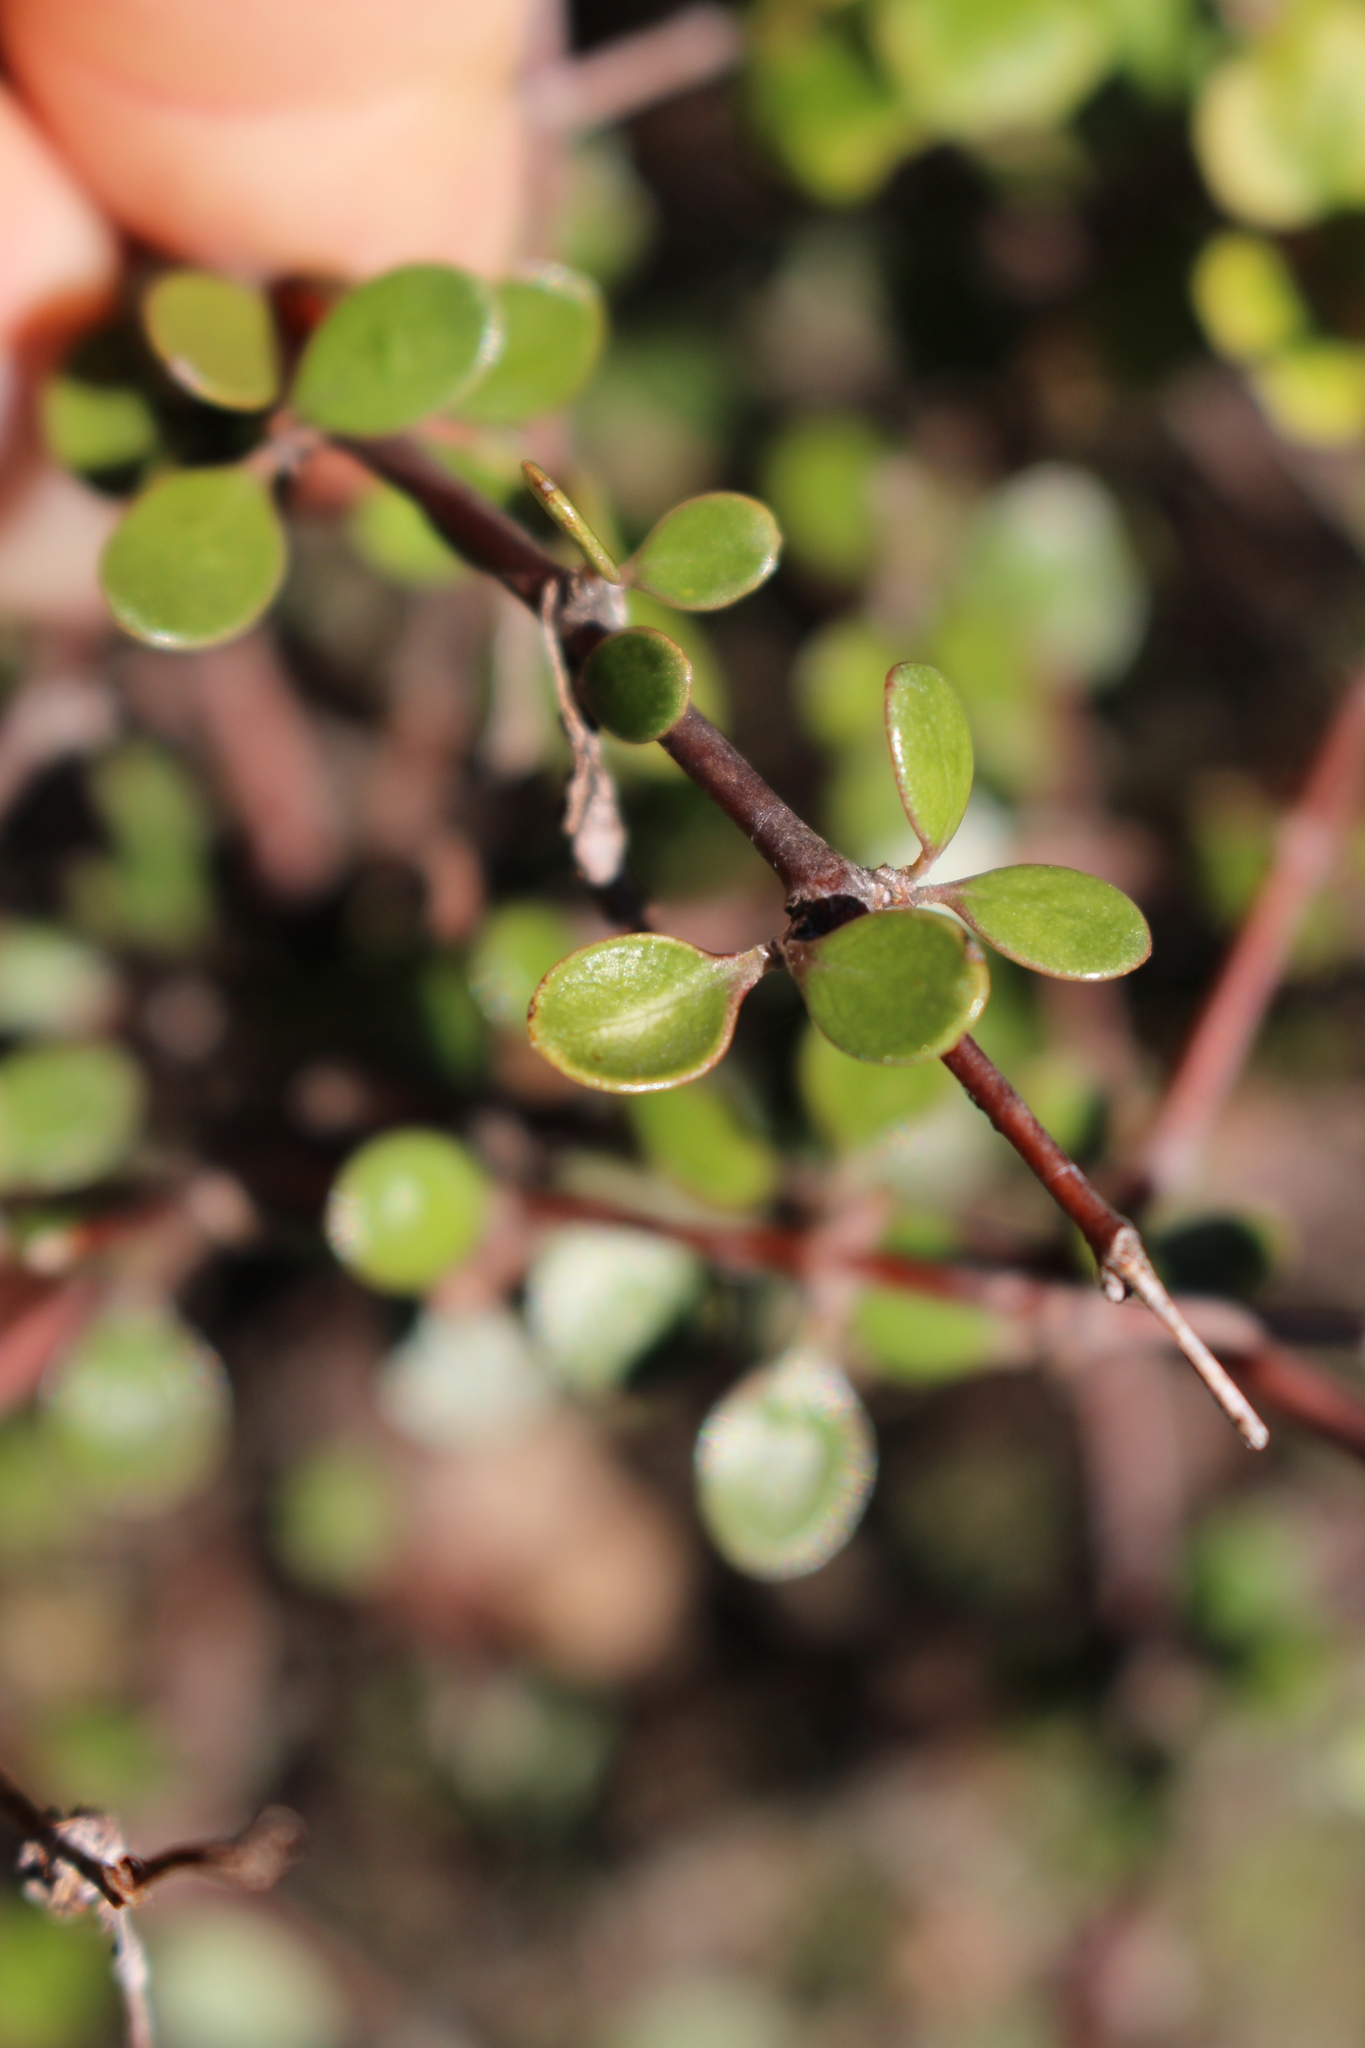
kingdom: Plantae
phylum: Tracheophyta
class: Magnoliopsida
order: Gentianales
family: Rubiaceae
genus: Coprosma
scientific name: Coprosma crassifolia
